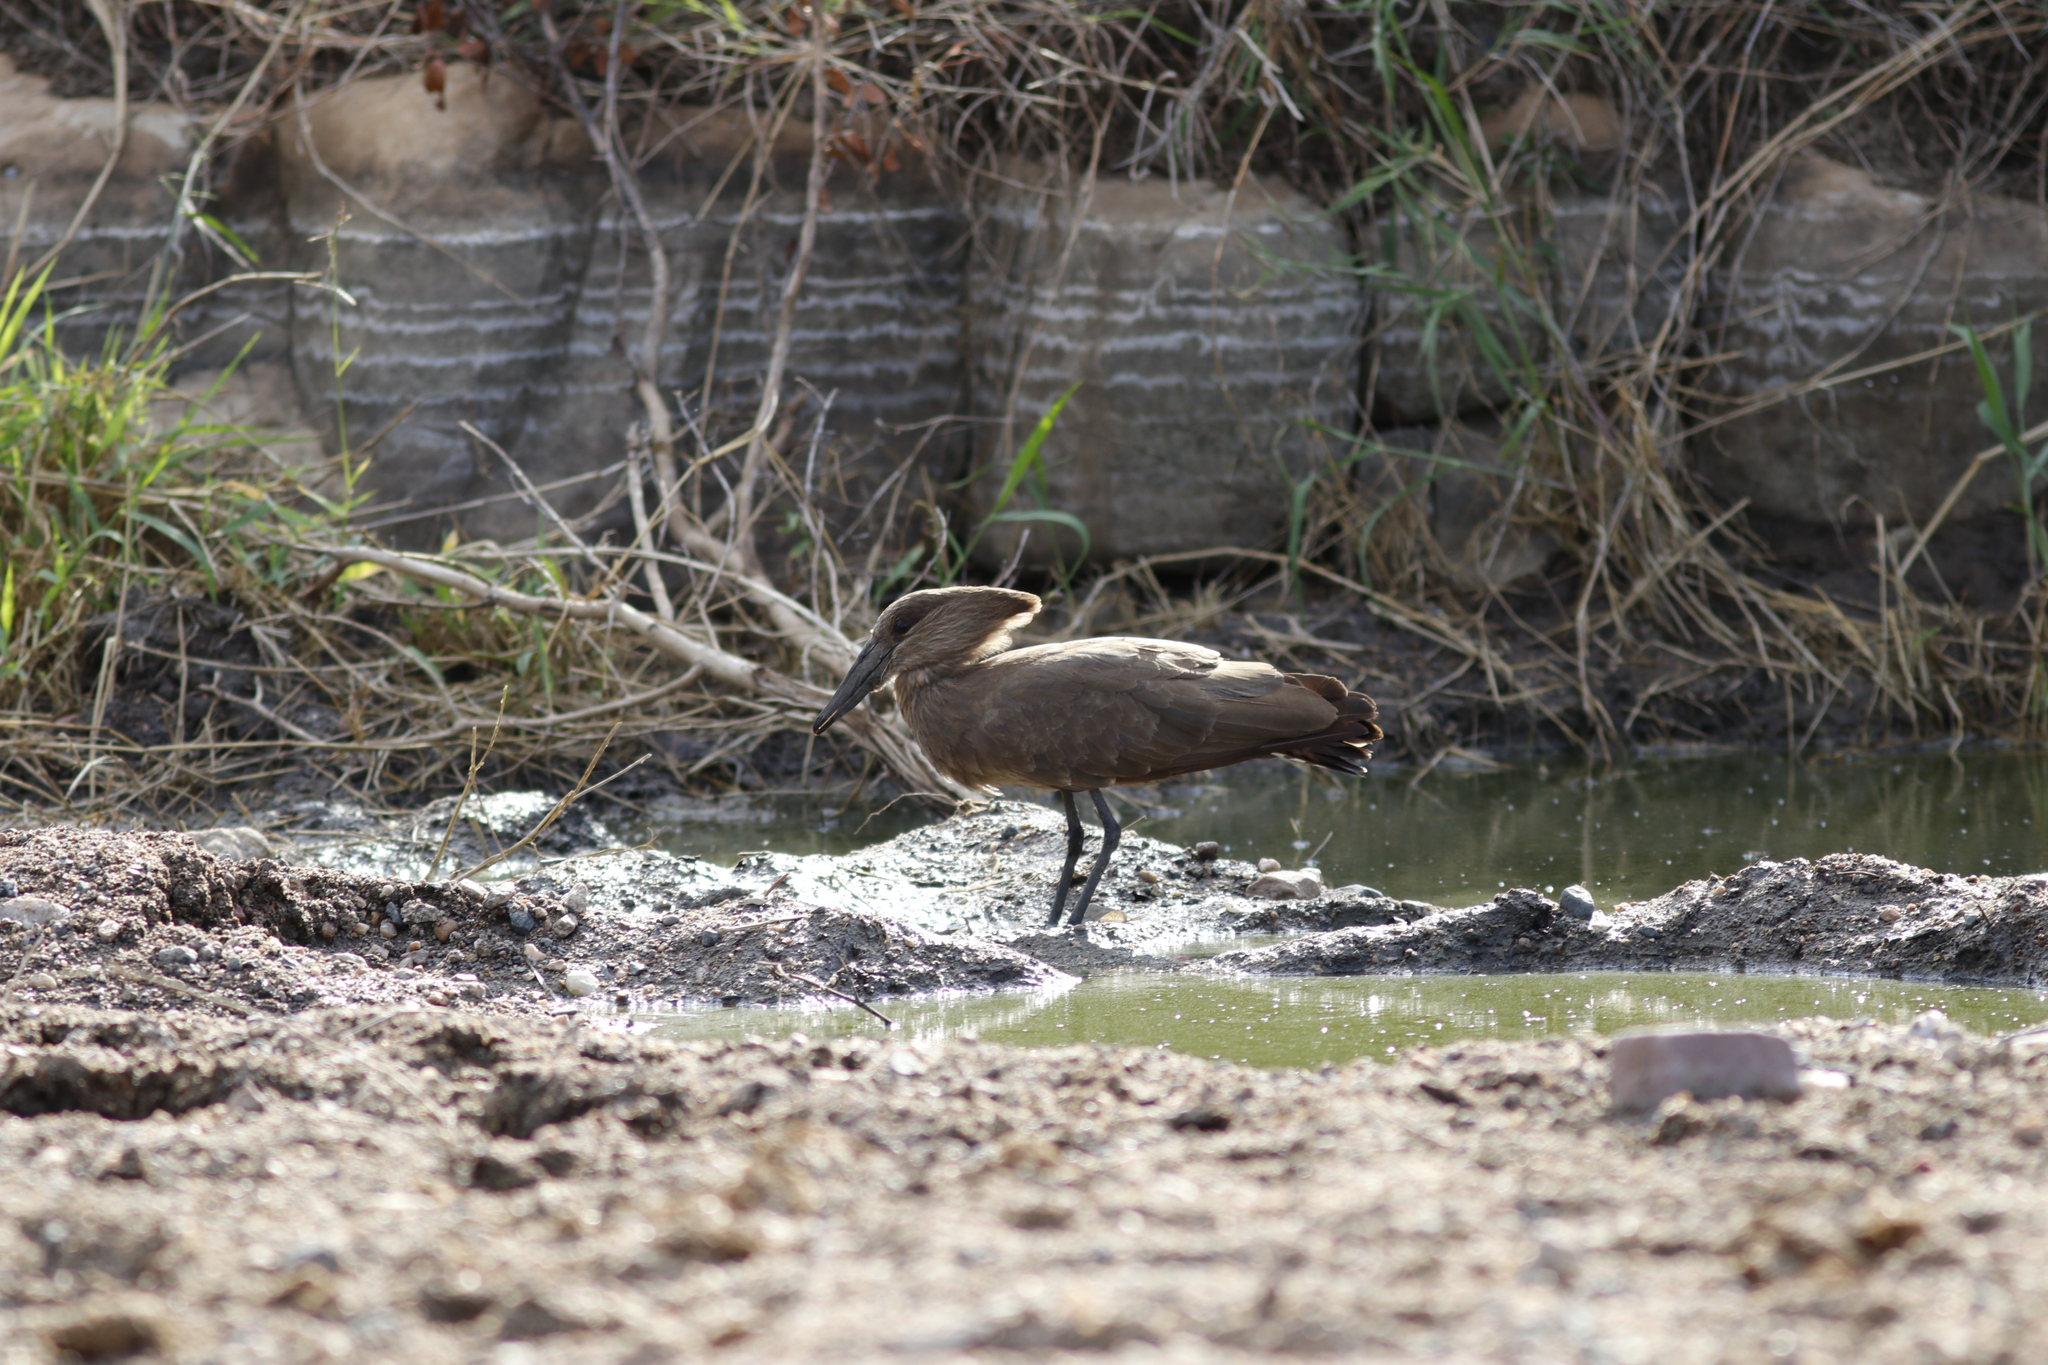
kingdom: Animalia
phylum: Chordata
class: Aves
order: Pelecaniformes
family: Scopidae
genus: Scopus
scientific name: Scopus umbretta
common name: Hamerkop
